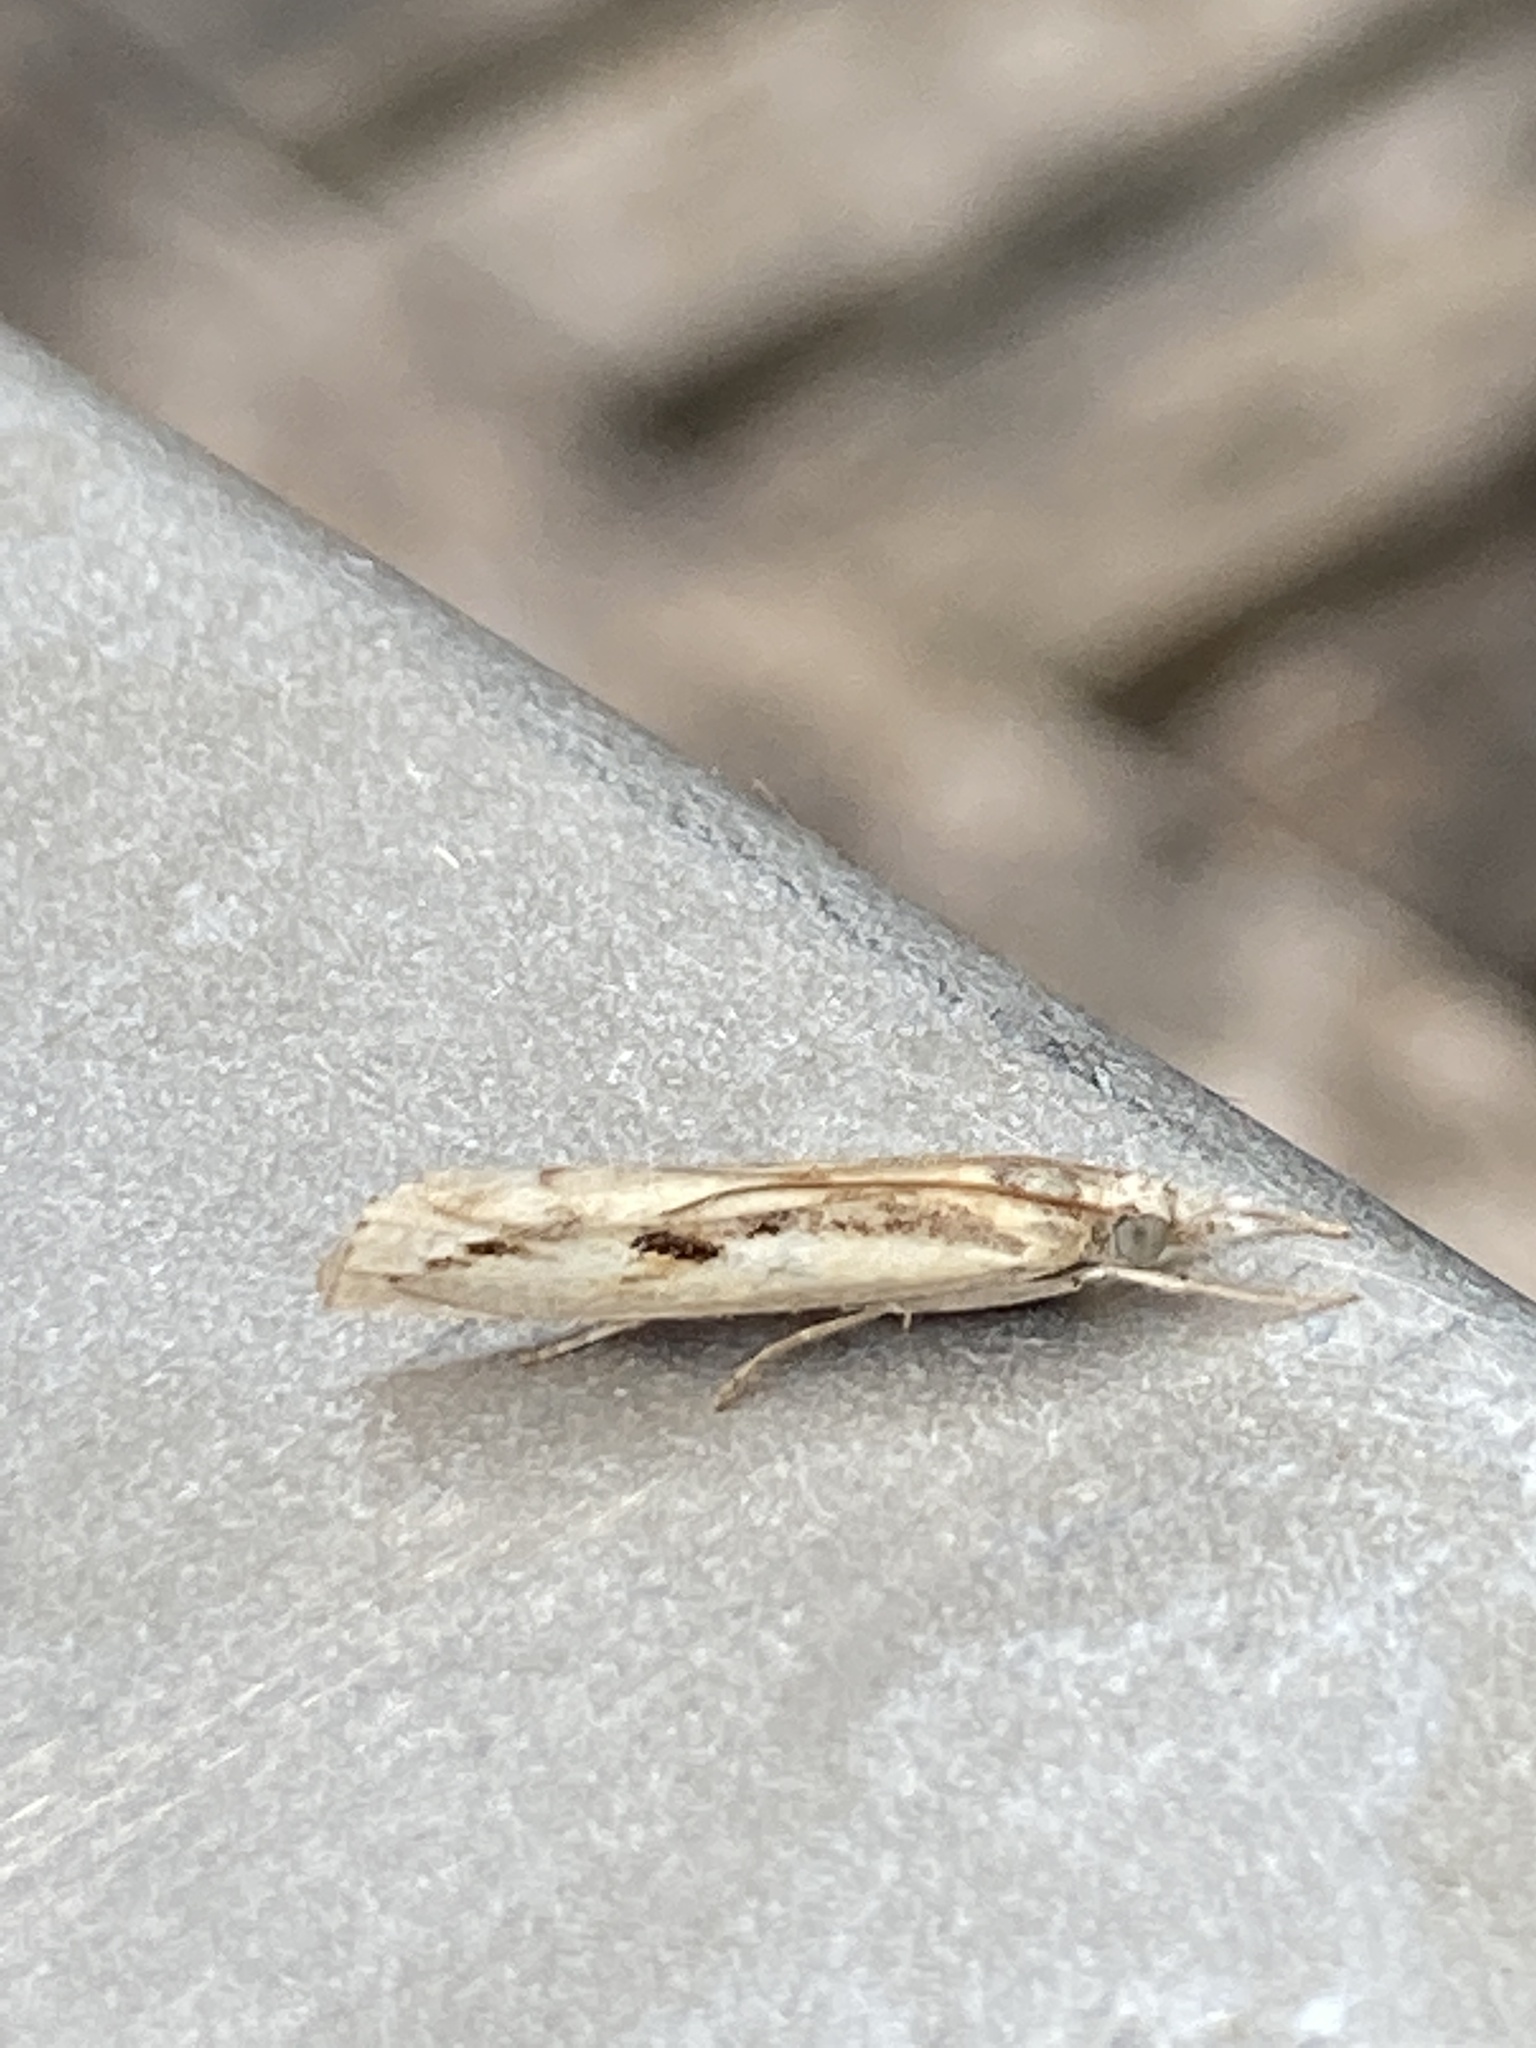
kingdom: Animalia
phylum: Arthropoda
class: Insecta
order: Lepidoptera
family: Crambidae
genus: Agriphila
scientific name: Agriphila geniculea
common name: Elbow-stripe grass-veneer
